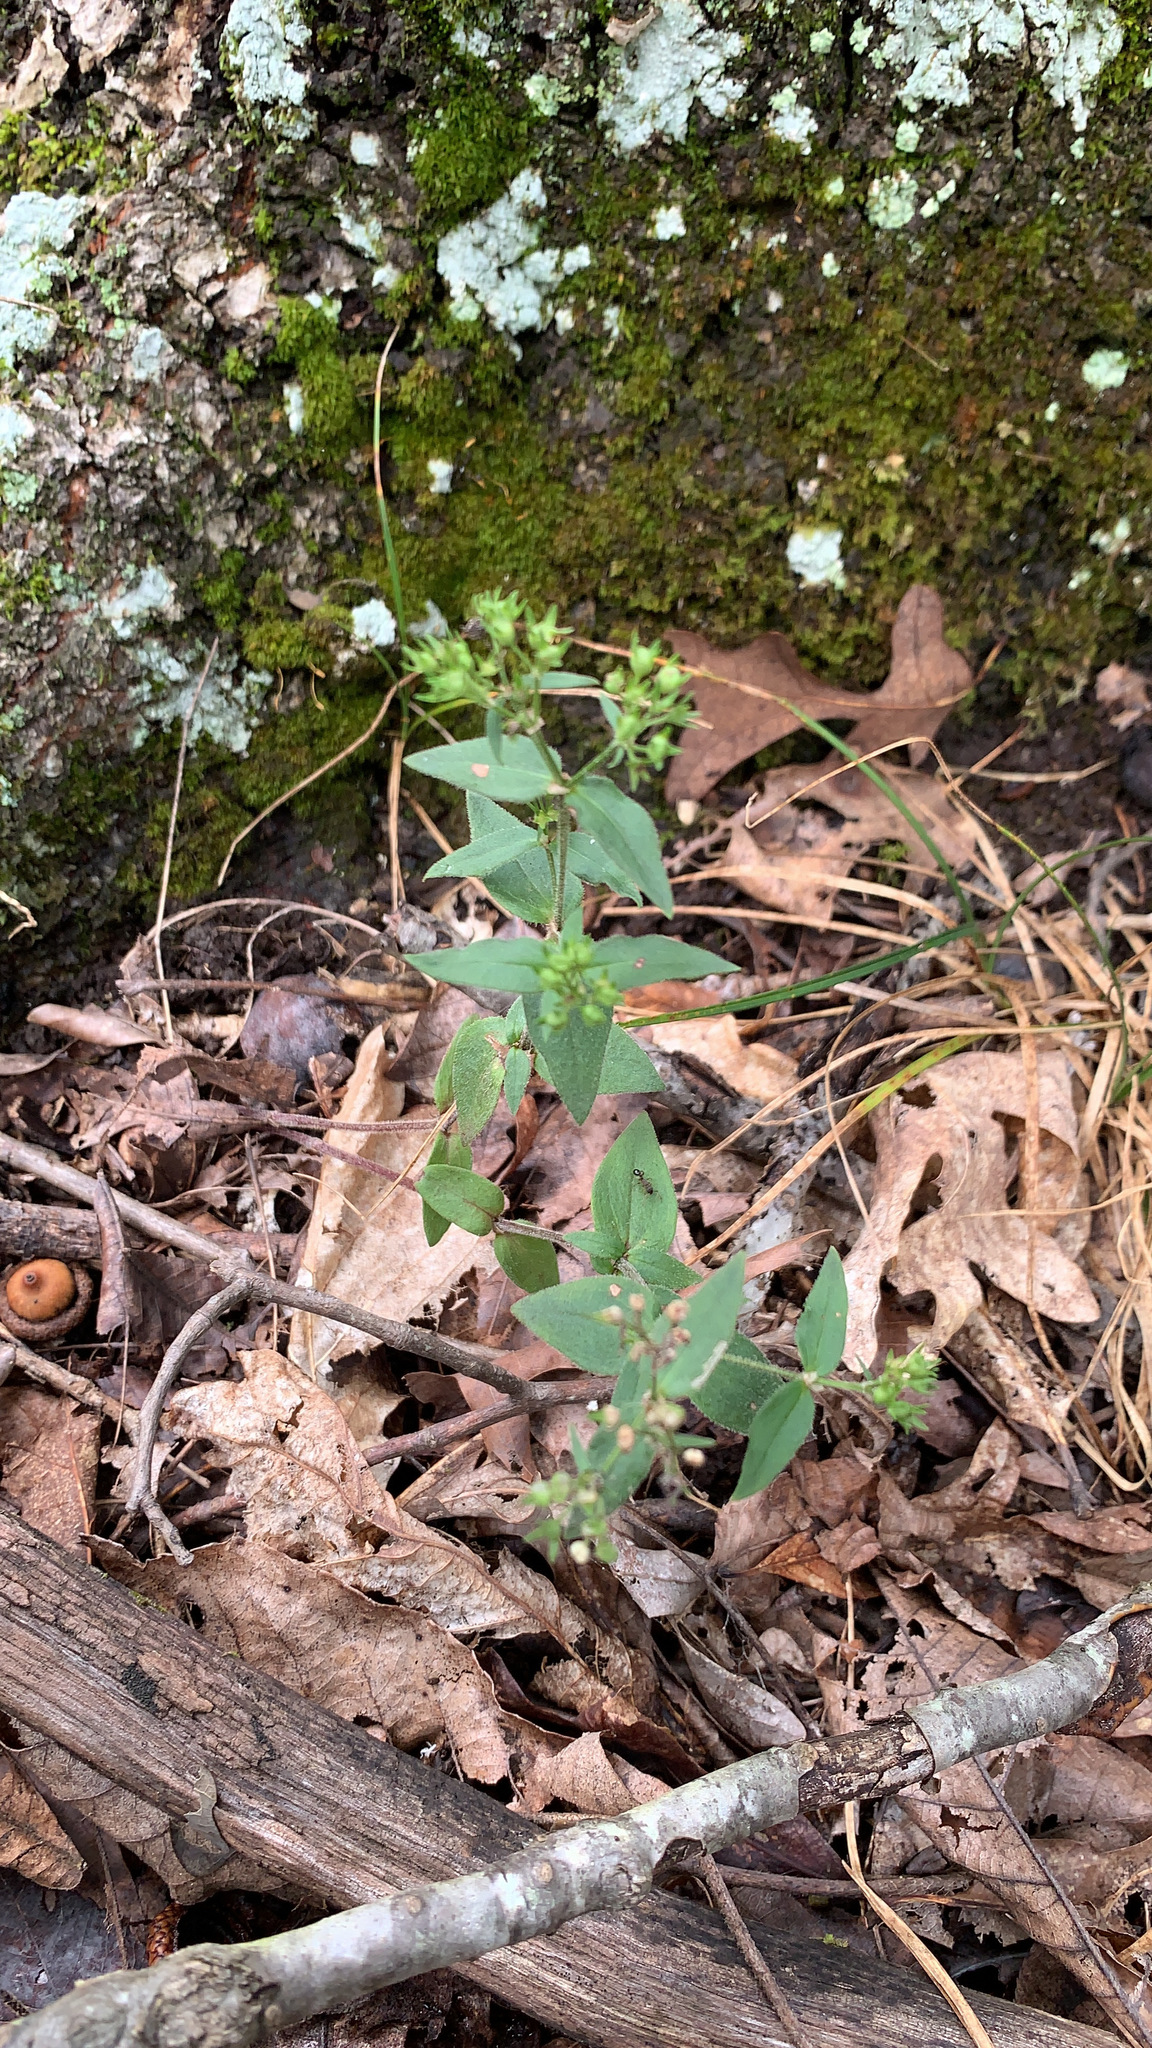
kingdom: Plantae
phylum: Tracheophyta
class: Magnoliopsida
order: Gentianales
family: Rubiaceae
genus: Houstonia
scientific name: Houstonia purpurea
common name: Summer bluet
